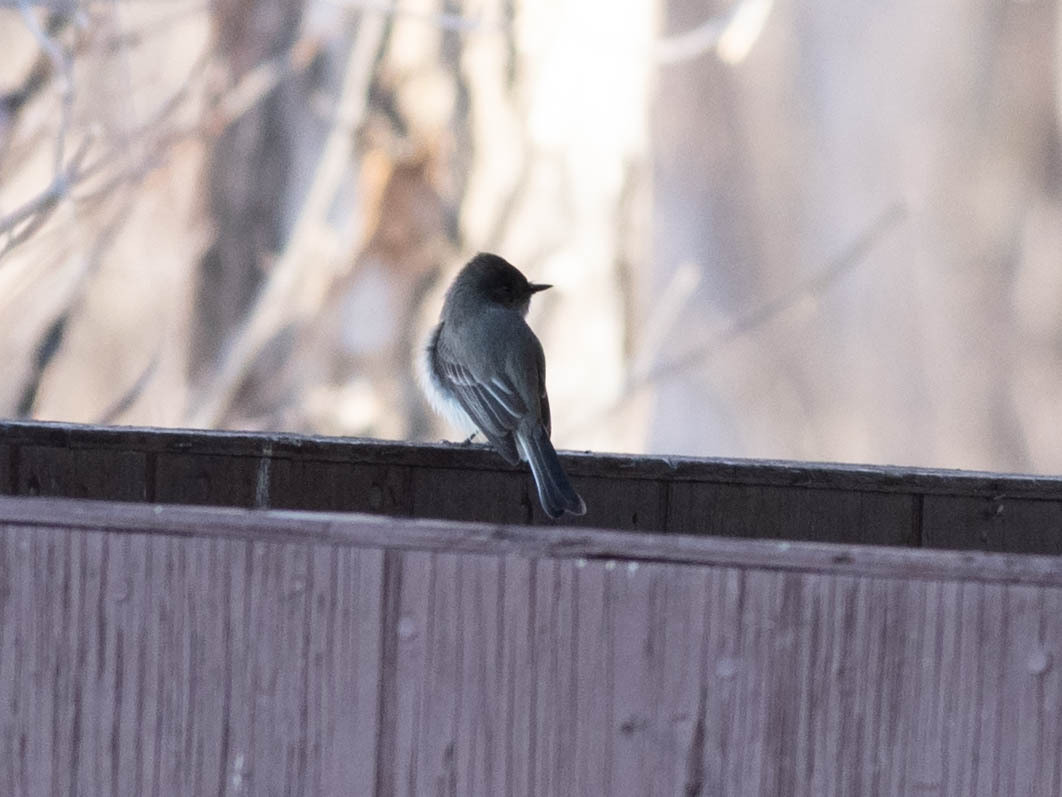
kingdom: Animalia
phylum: Chordata
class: Aves
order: Passeriformes
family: Tyrannidae
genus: Sayornis
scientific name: Sayornis phoebe
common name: Eastern phoebe
